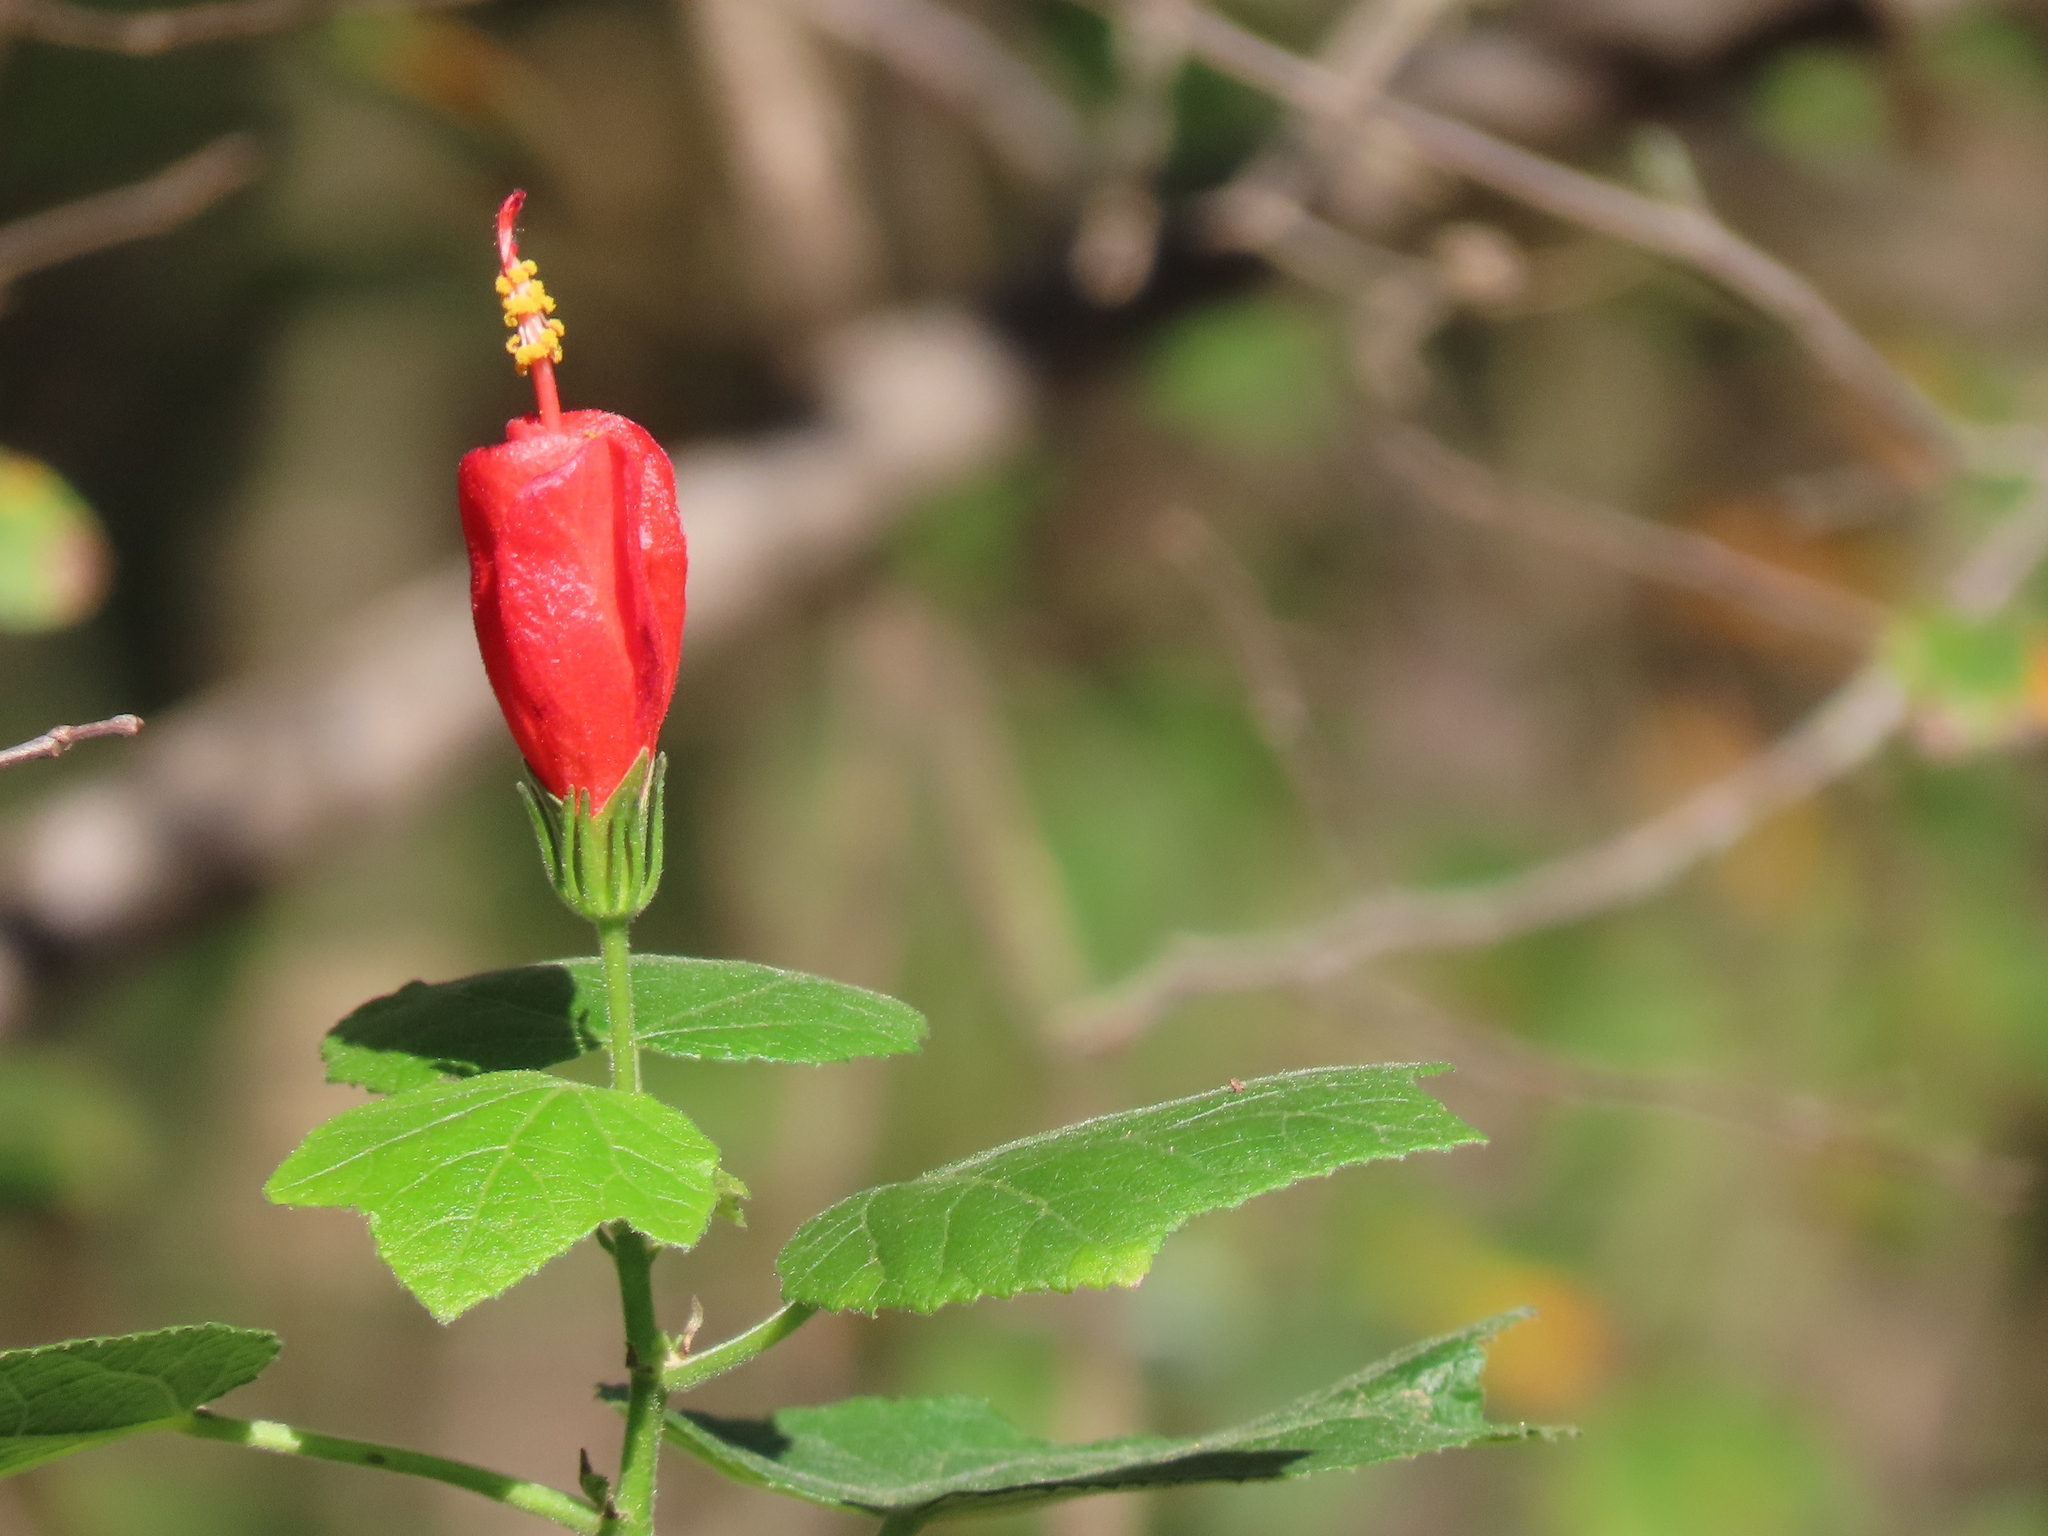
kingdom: Plantae
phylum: Tracheophyta
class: Magnoliopsida
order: Malvales
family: Malvaceae
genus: Malvaviscus
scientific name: Malvaviscus arboreus
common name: Wax mallow
